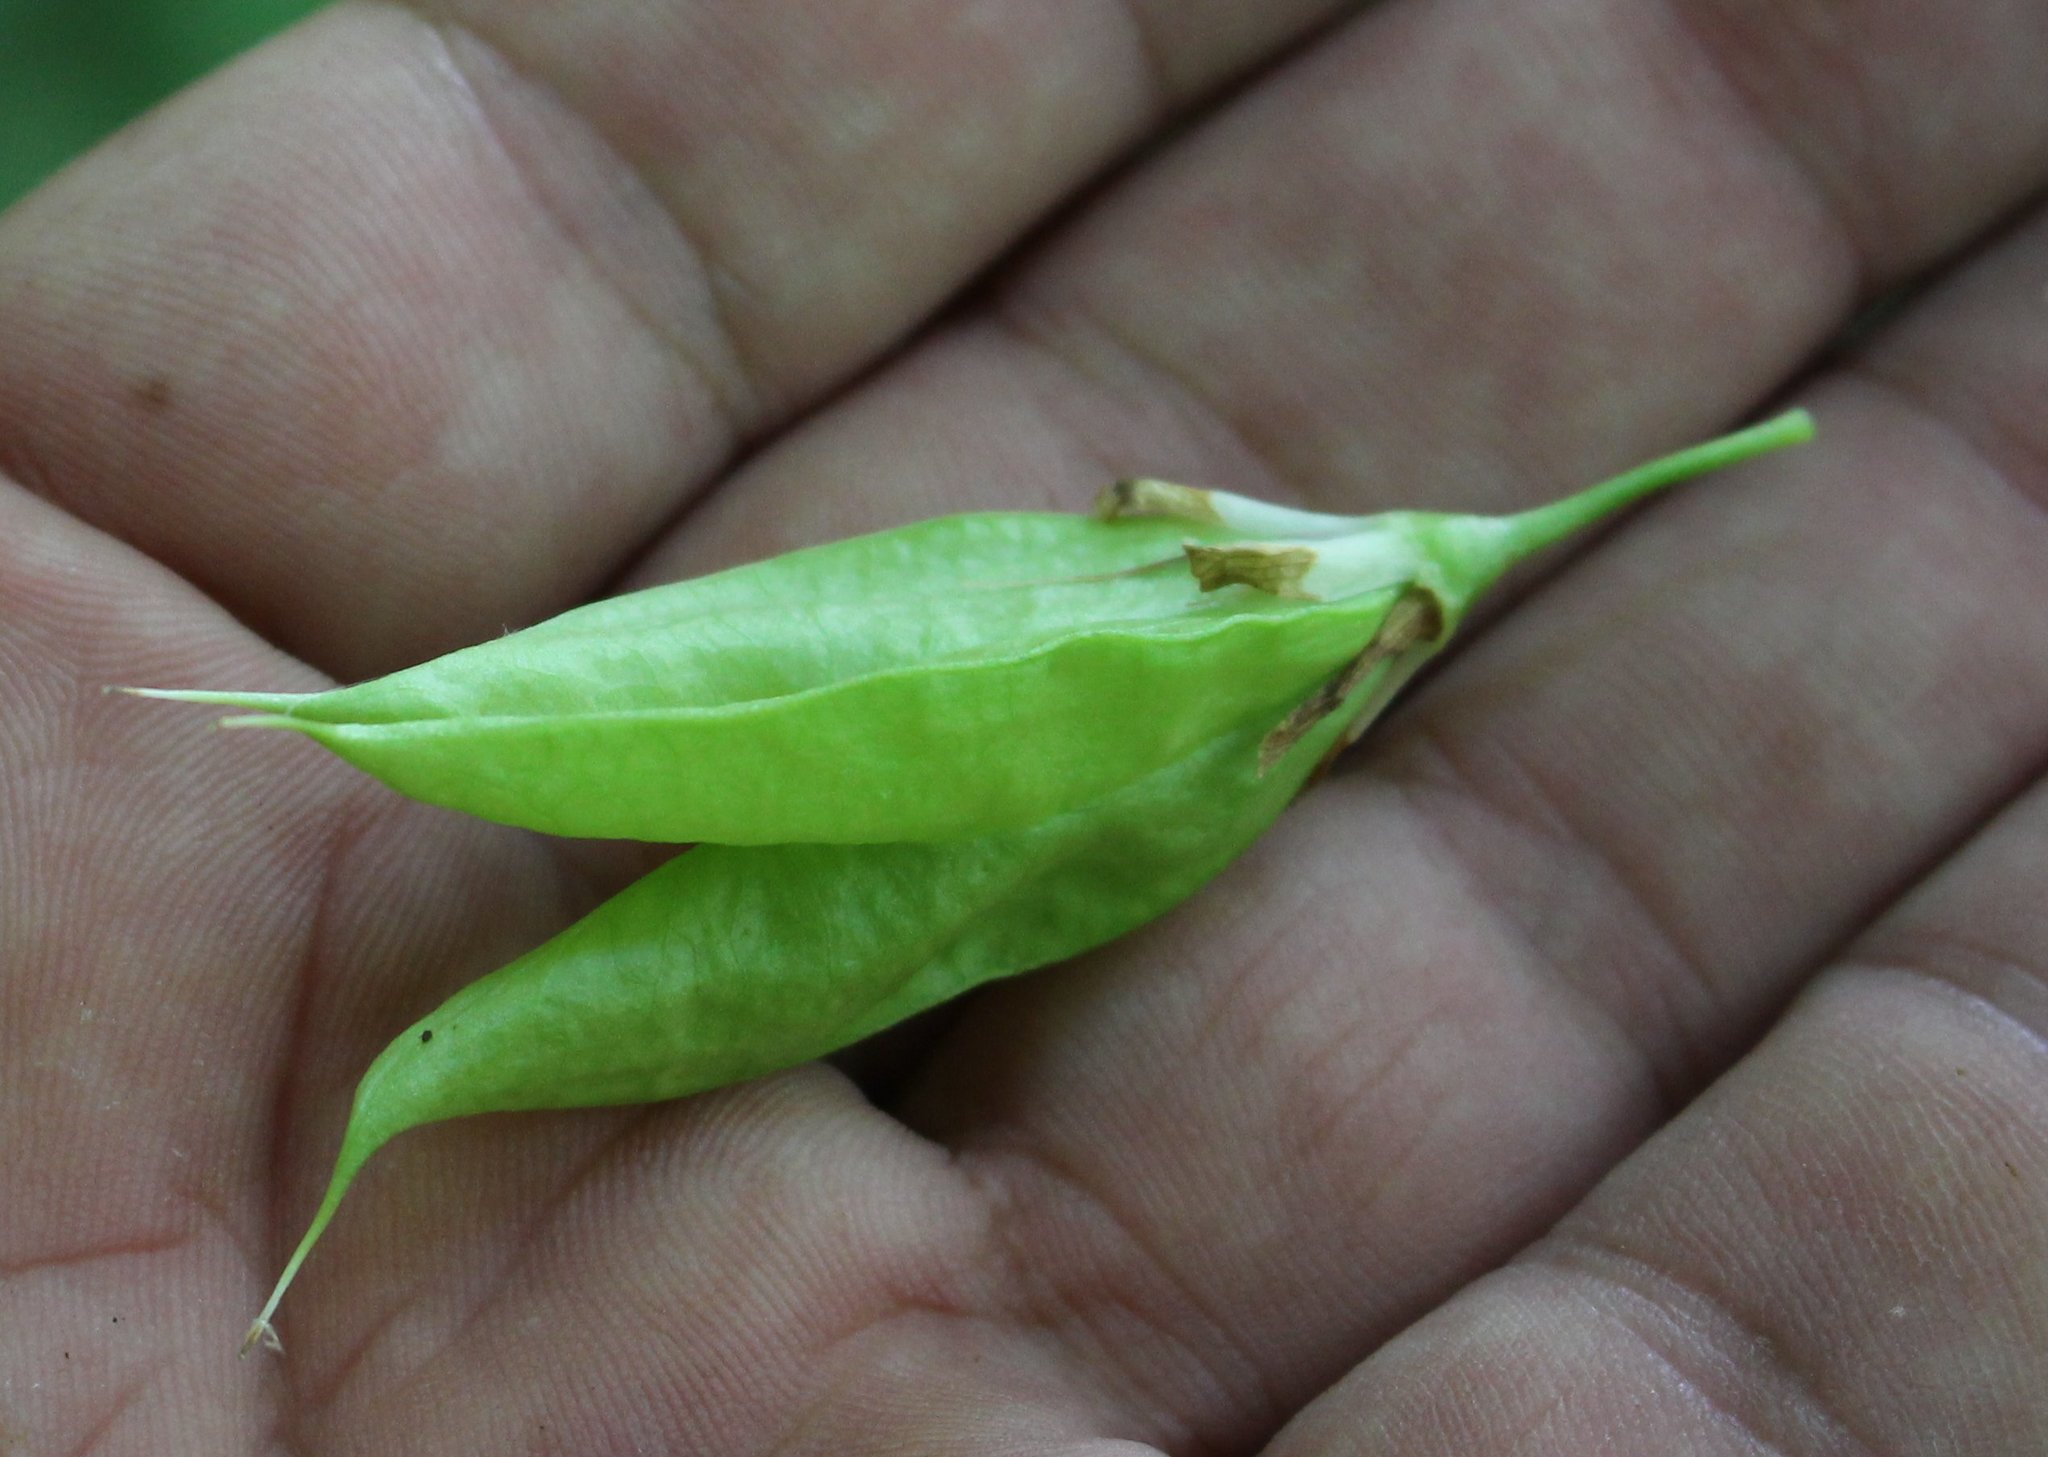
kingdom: Plantae
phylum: Tracheophyta
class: Magnoliopsida
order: Crossosomatales
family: Staphyleaceae
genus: Staphylea
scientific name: Staphylea colchica
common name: Caucasian bladdernut
